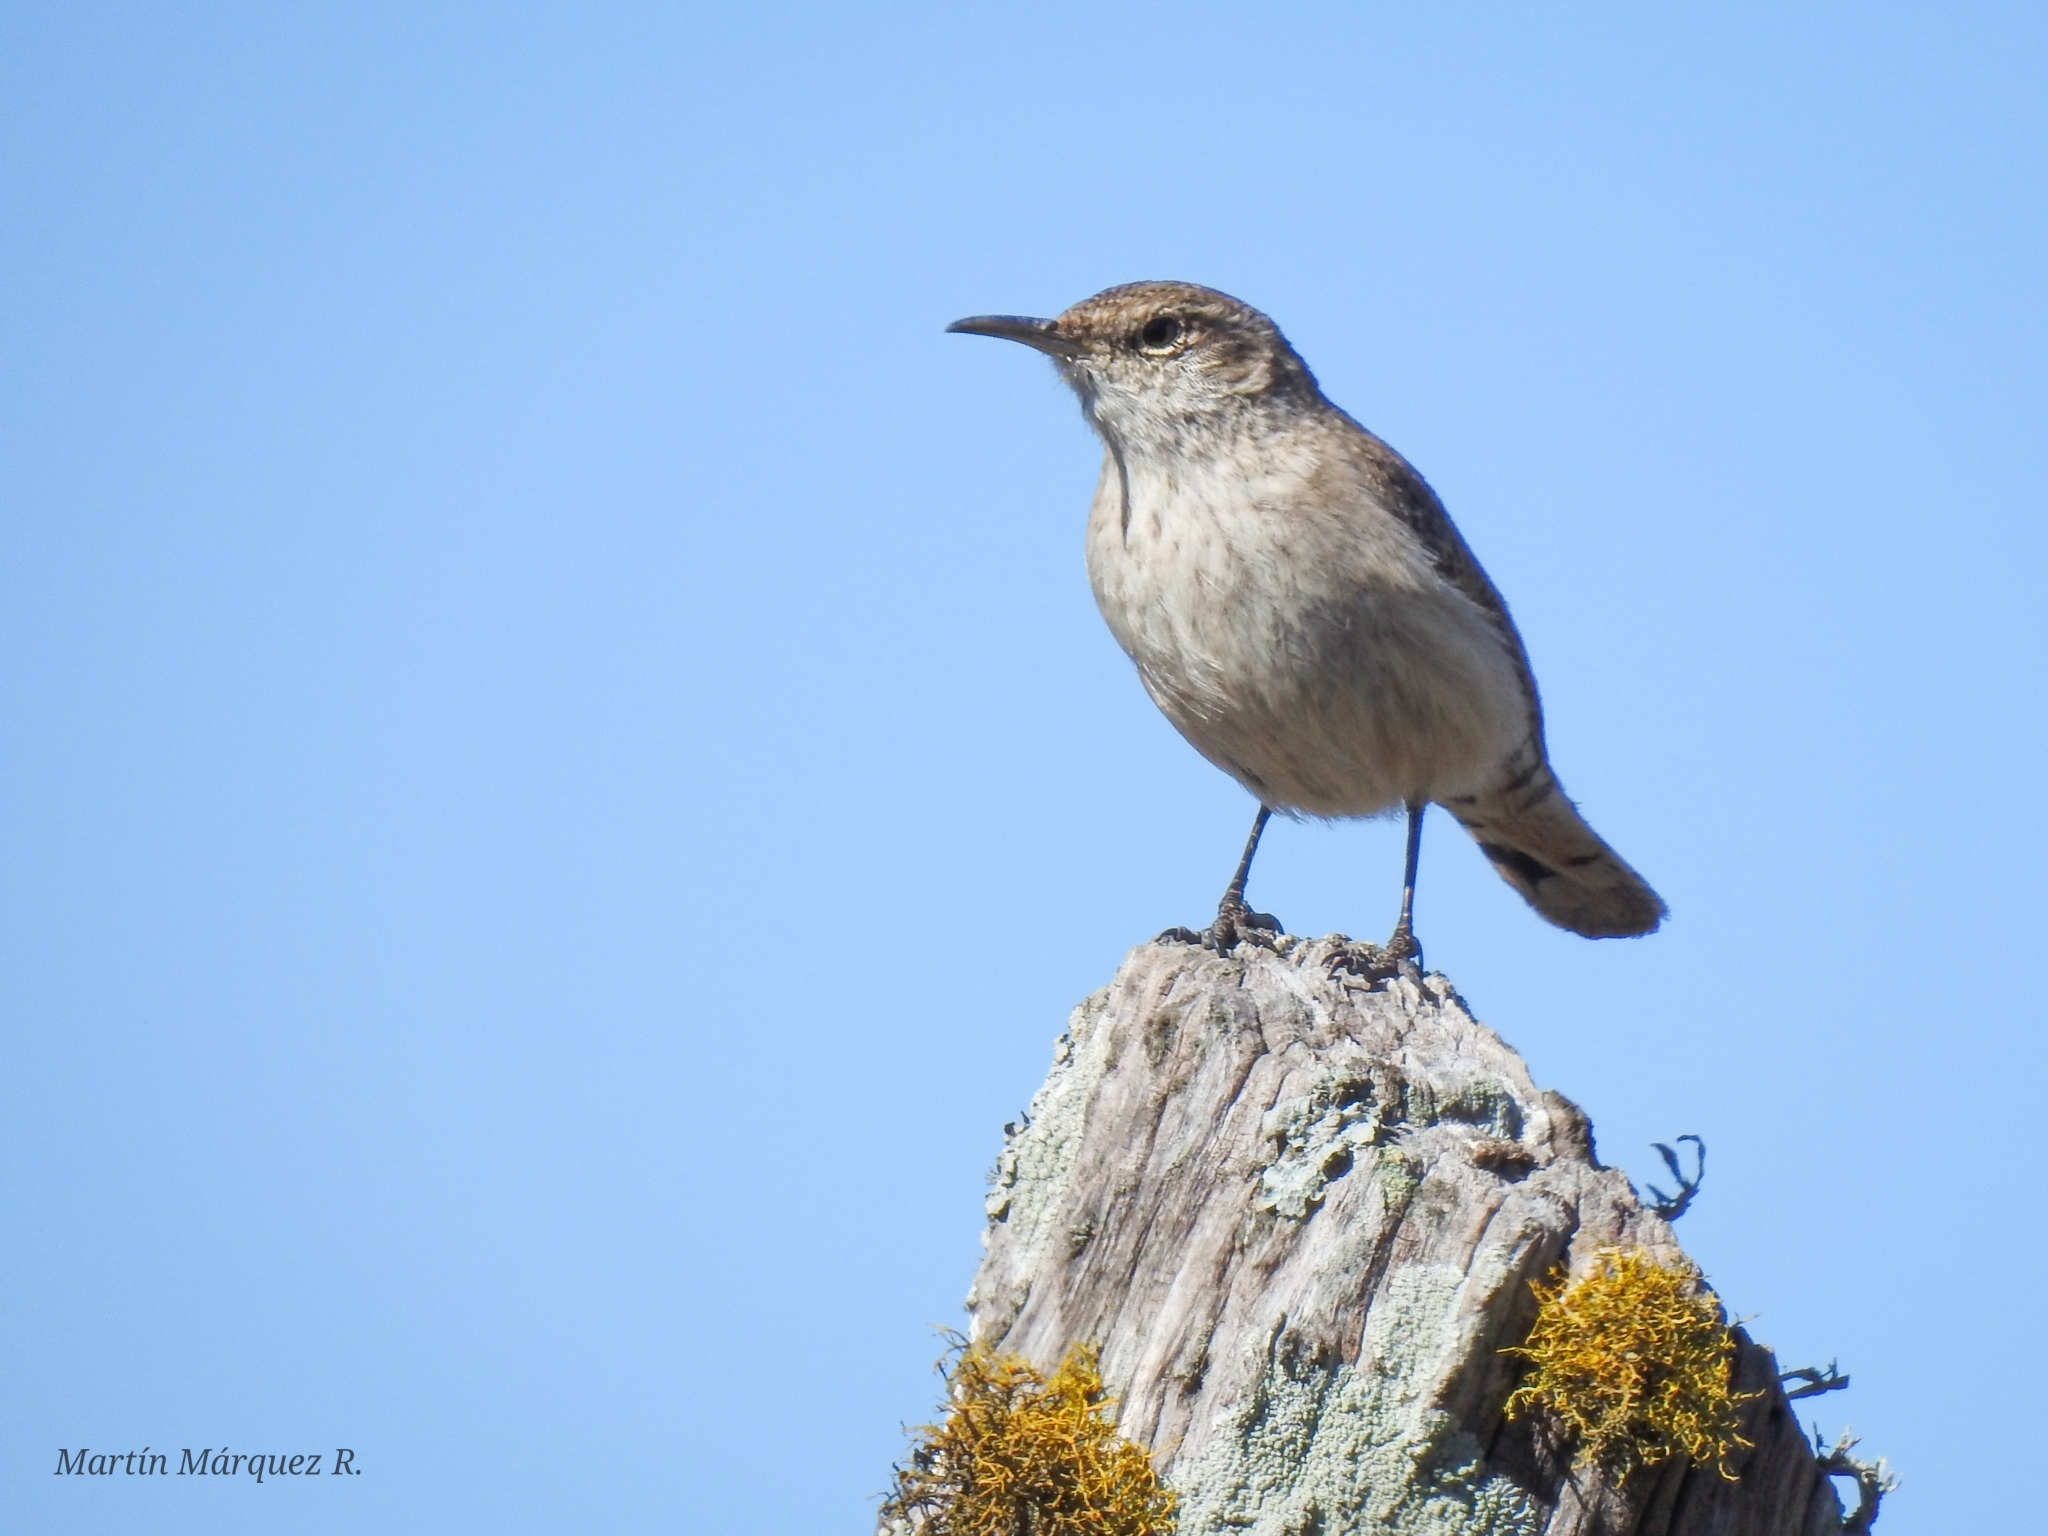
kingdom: Animalia
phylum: Chordata
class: Aves
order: Passeriformes
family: Troglodytidae
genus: Salpinctes
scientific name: Salpinctes obsoletus
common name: Rock wren
